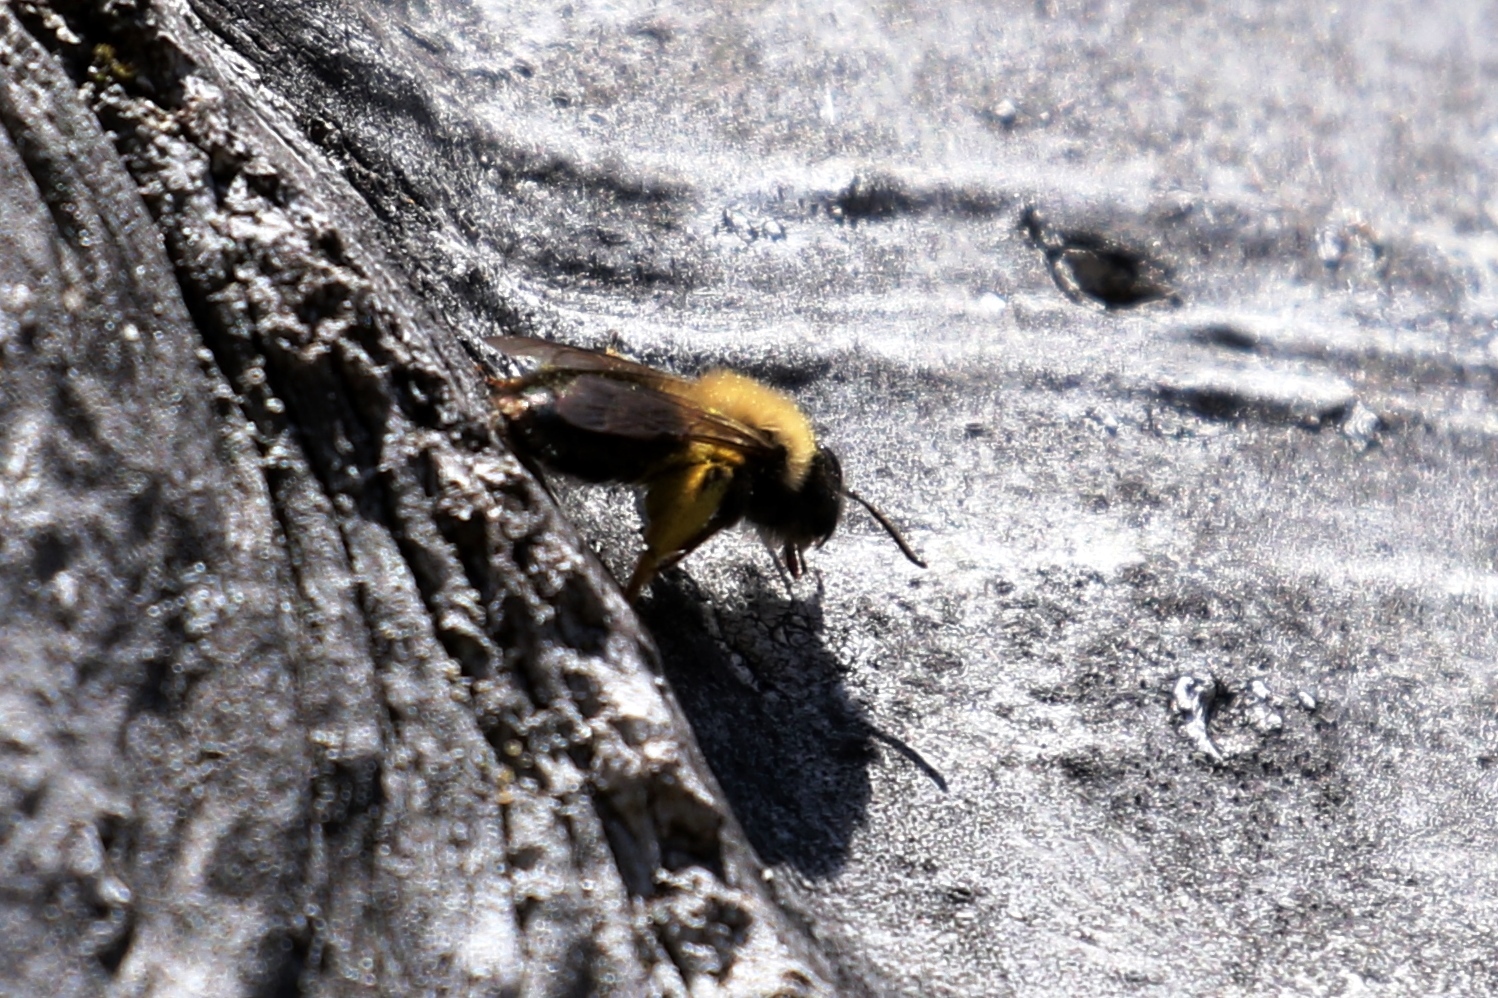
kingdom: Animalia
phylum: Arthropoda
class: Insecta
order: Hymenoptera
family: Andrenidae
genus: Andrena
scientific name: Andrena clarkella
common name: Clarke's mining bee
